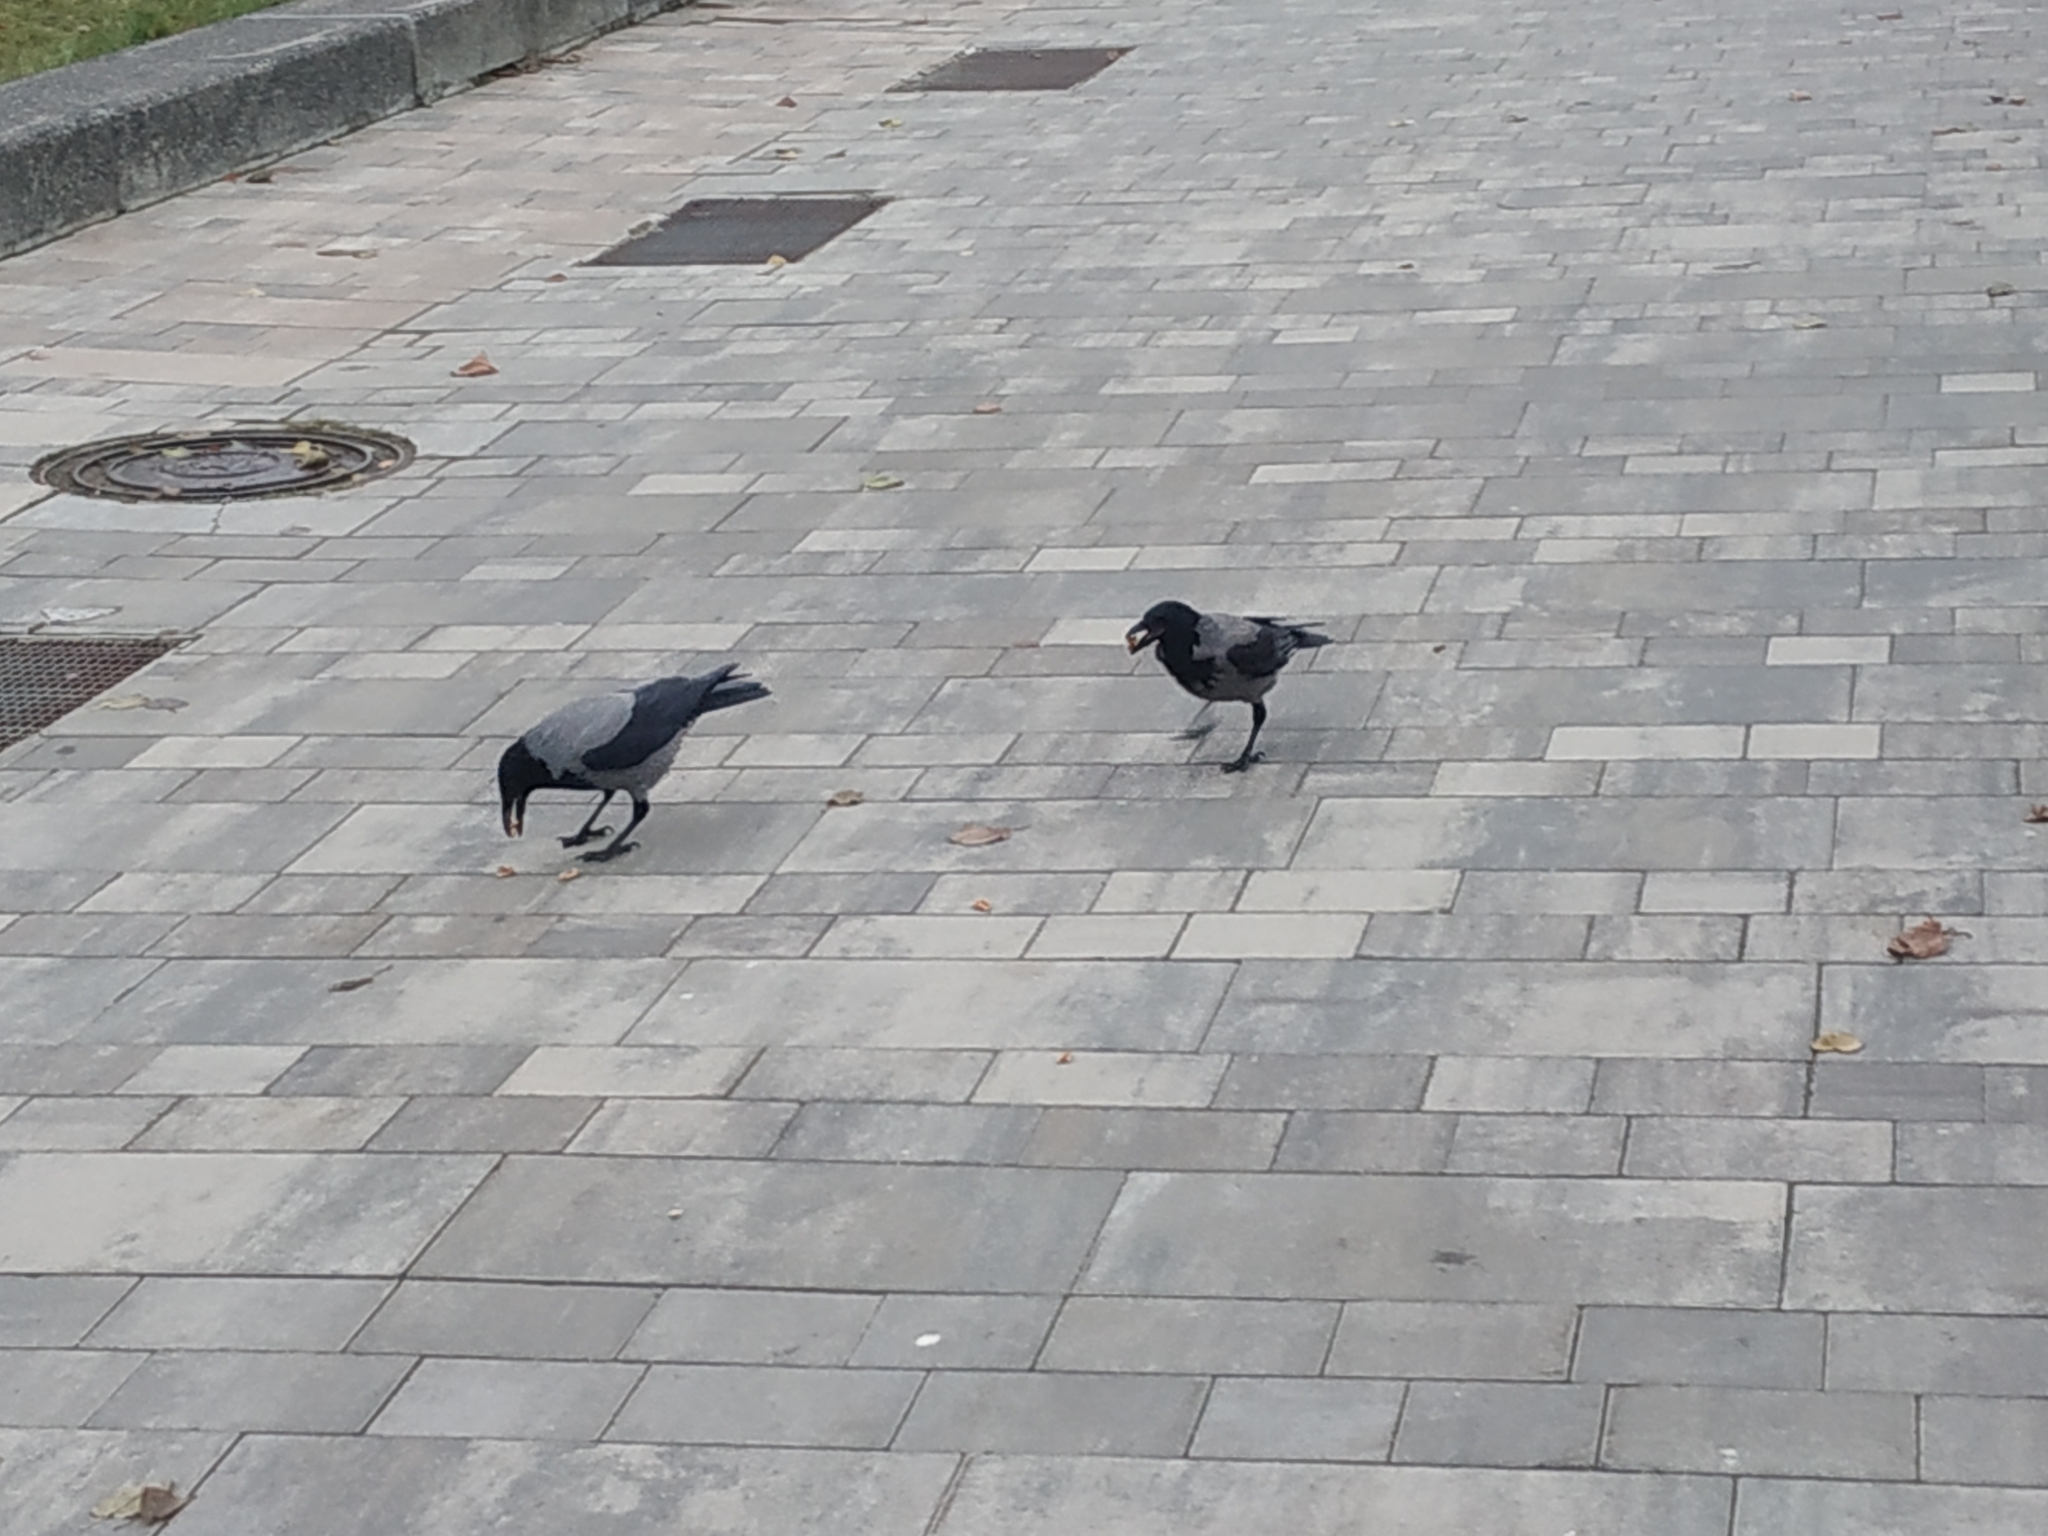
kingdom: Animalia
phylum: Chordata
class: Aves
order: Passeriformes
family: Corvidae
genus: Corvus
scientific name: Corvus cornix
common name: Hooded crow
